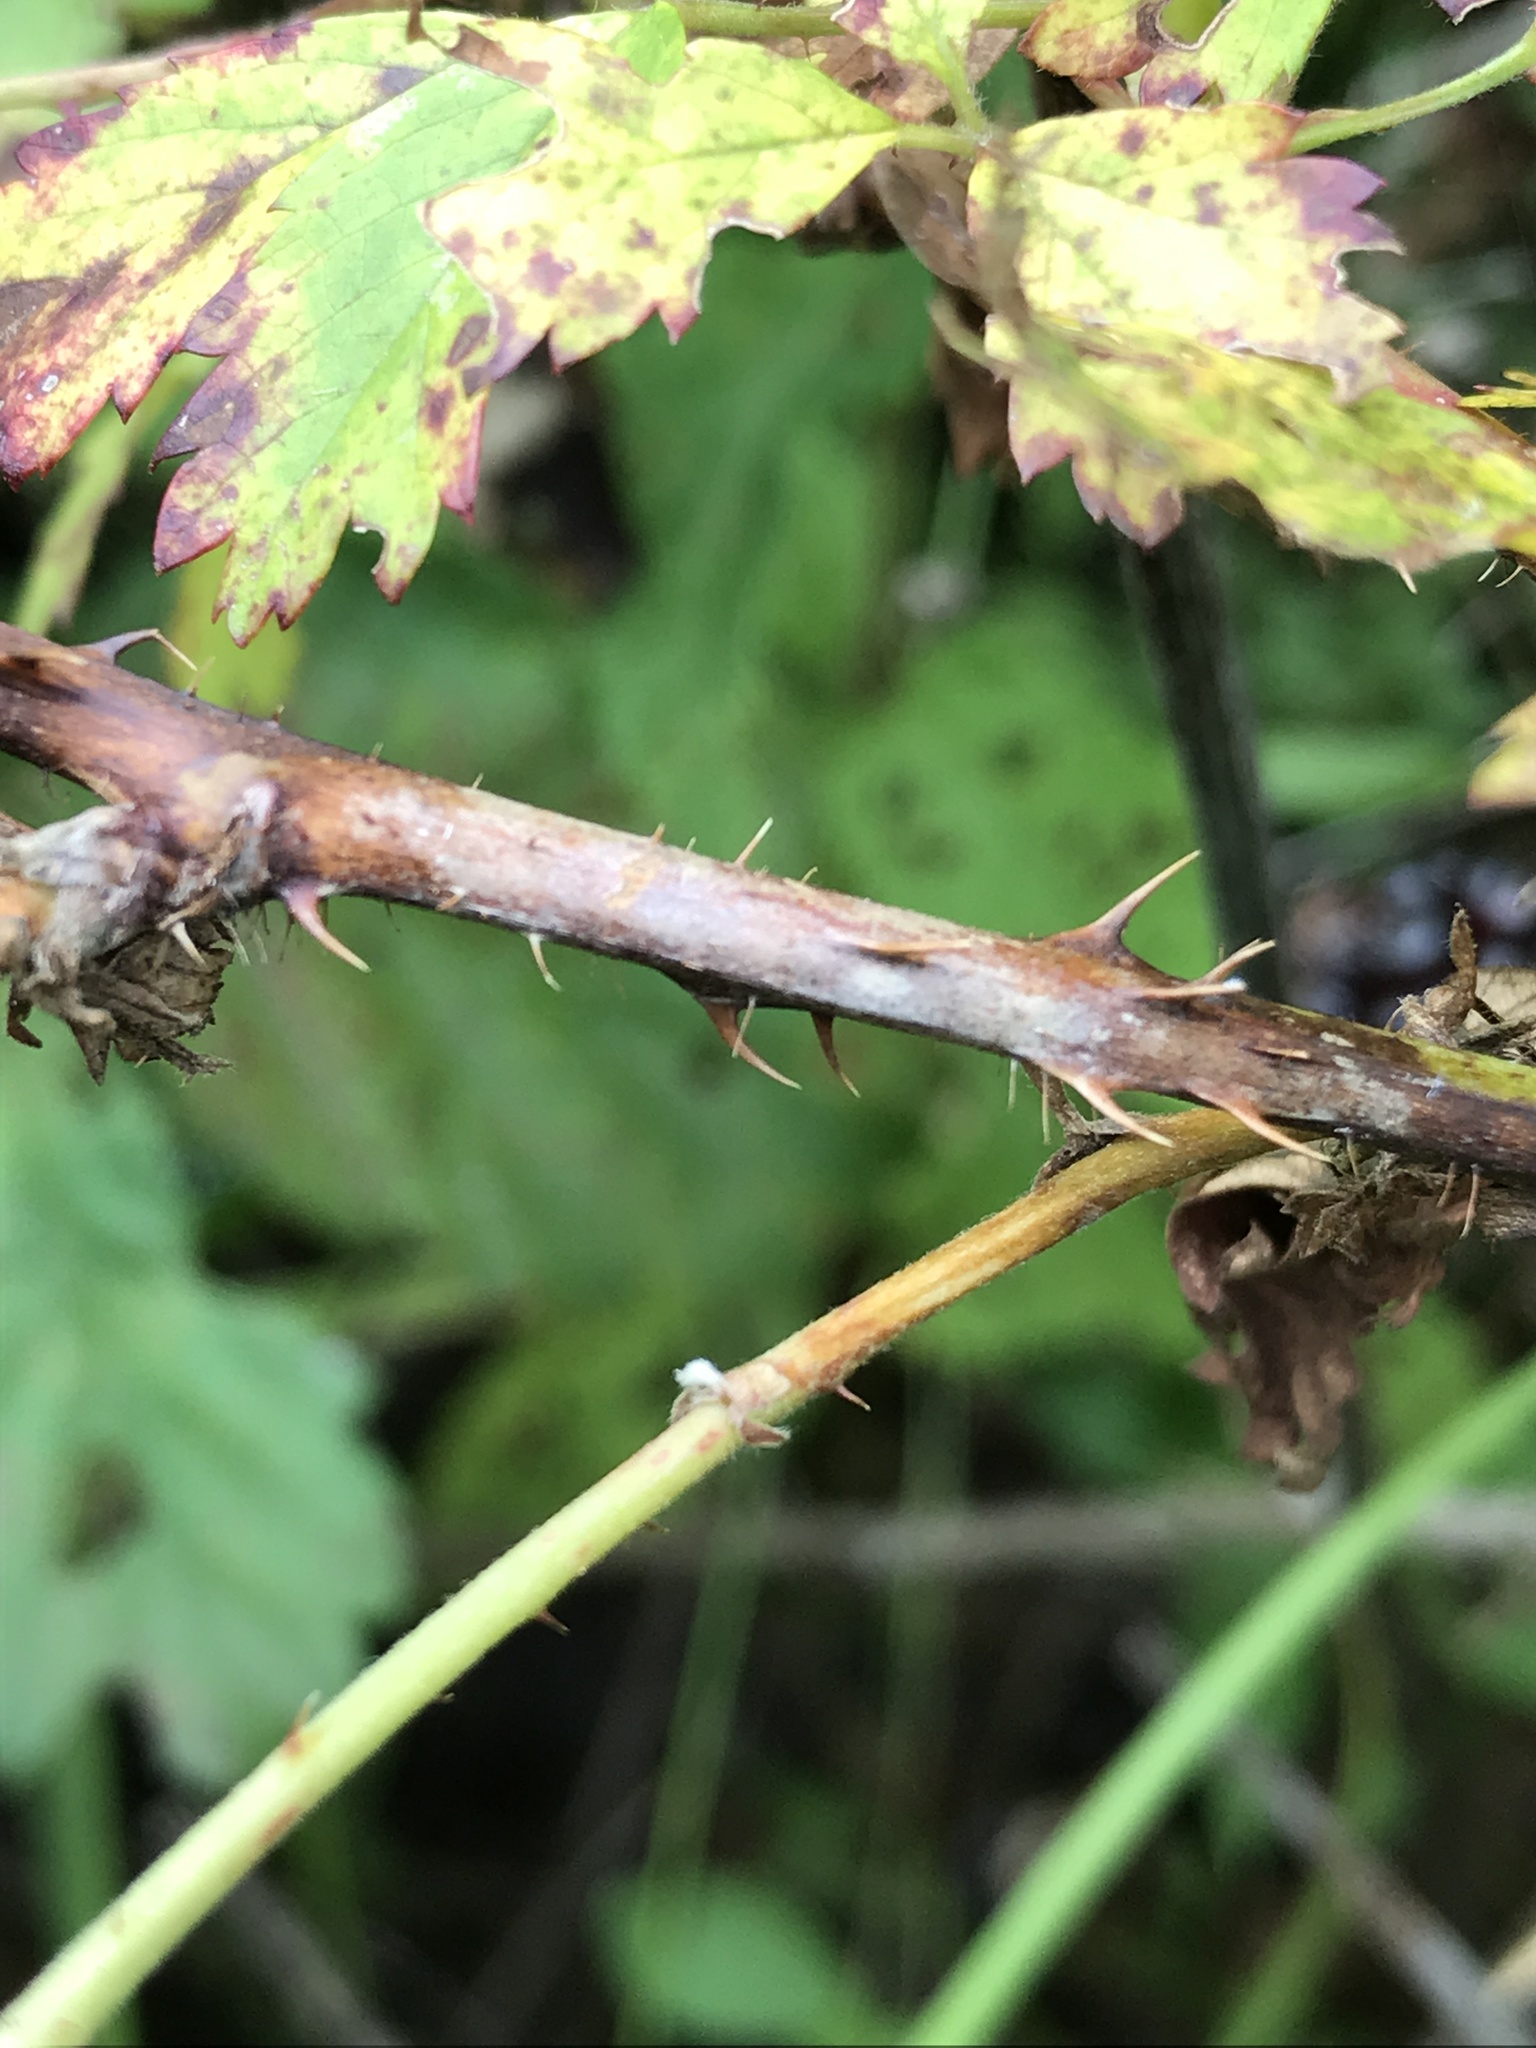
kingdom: Plantae
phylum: Tracheophyta
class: Magnoliopsida
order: Rosales
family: Rosaceae
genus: Rubus
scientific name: Rubus trivialis
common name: Southern dewberry
